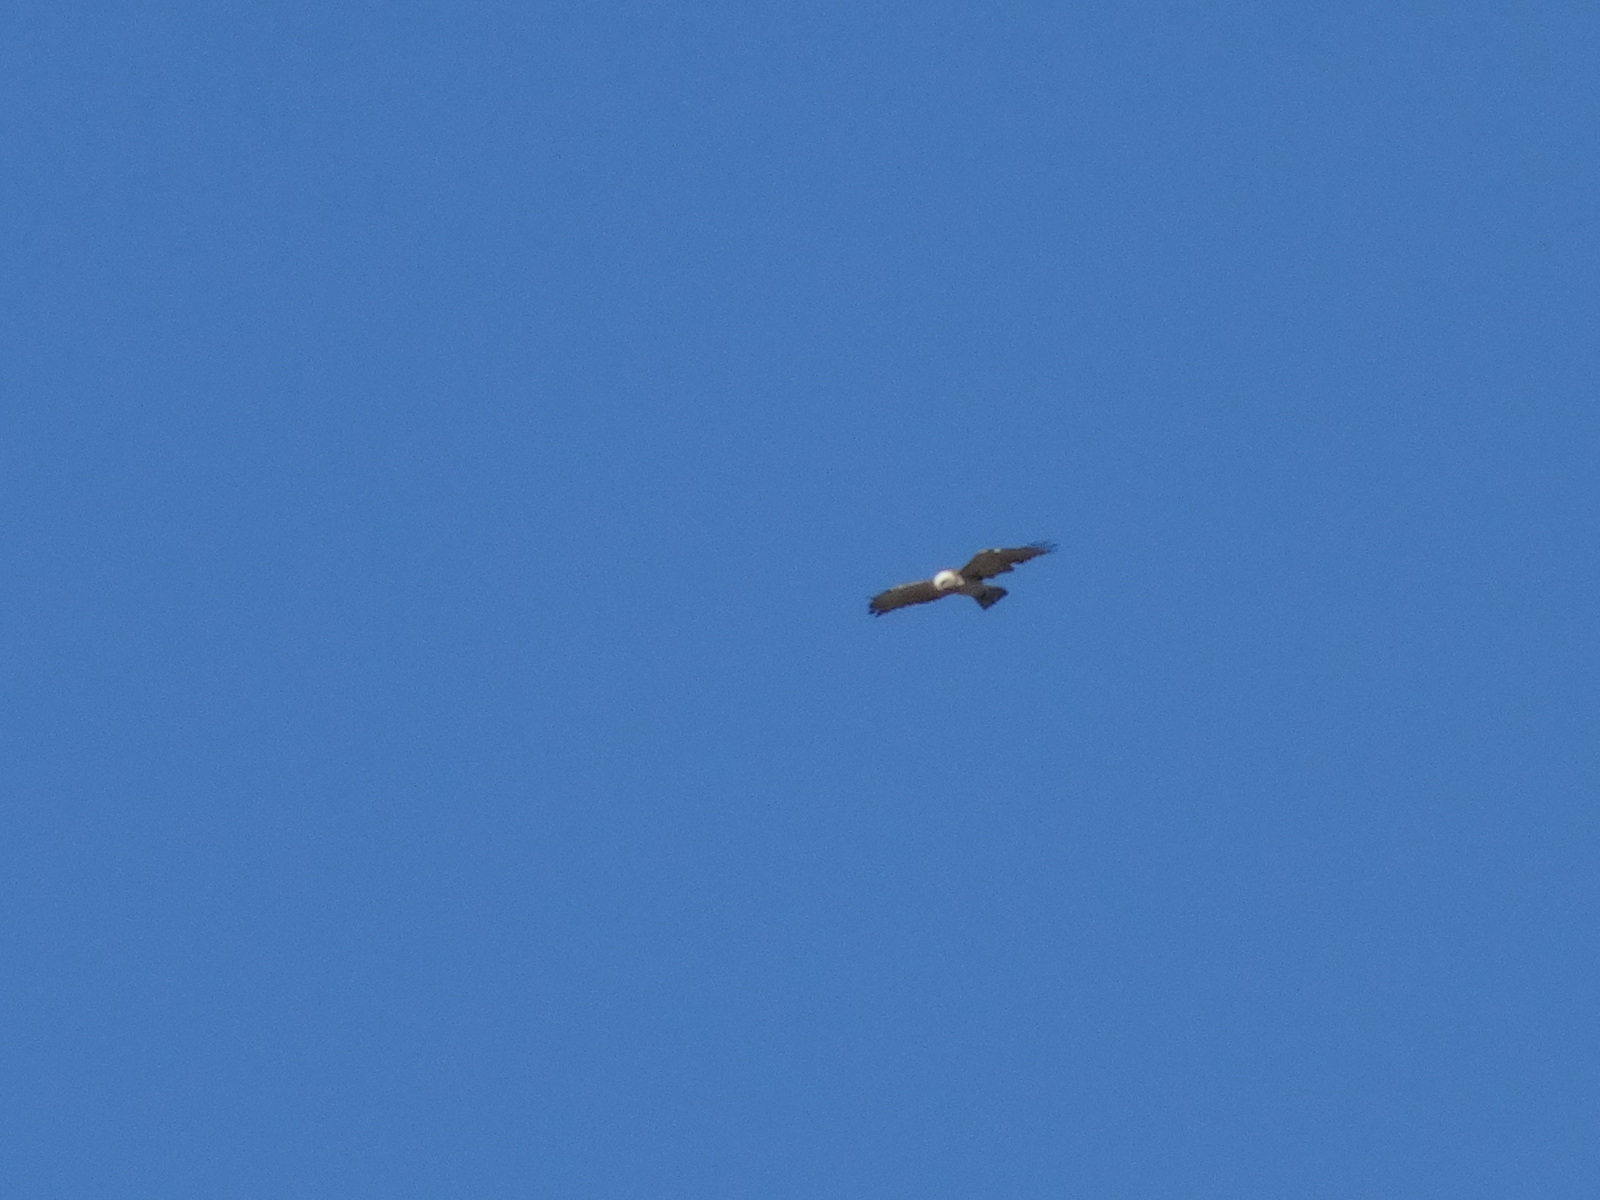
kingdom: Animalia
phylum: Chordata
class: Aves
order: Accipitriformes
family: Accipitridae
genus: Circaetus
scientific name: Circaetus gallicus
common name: Short-toed snake eagle
